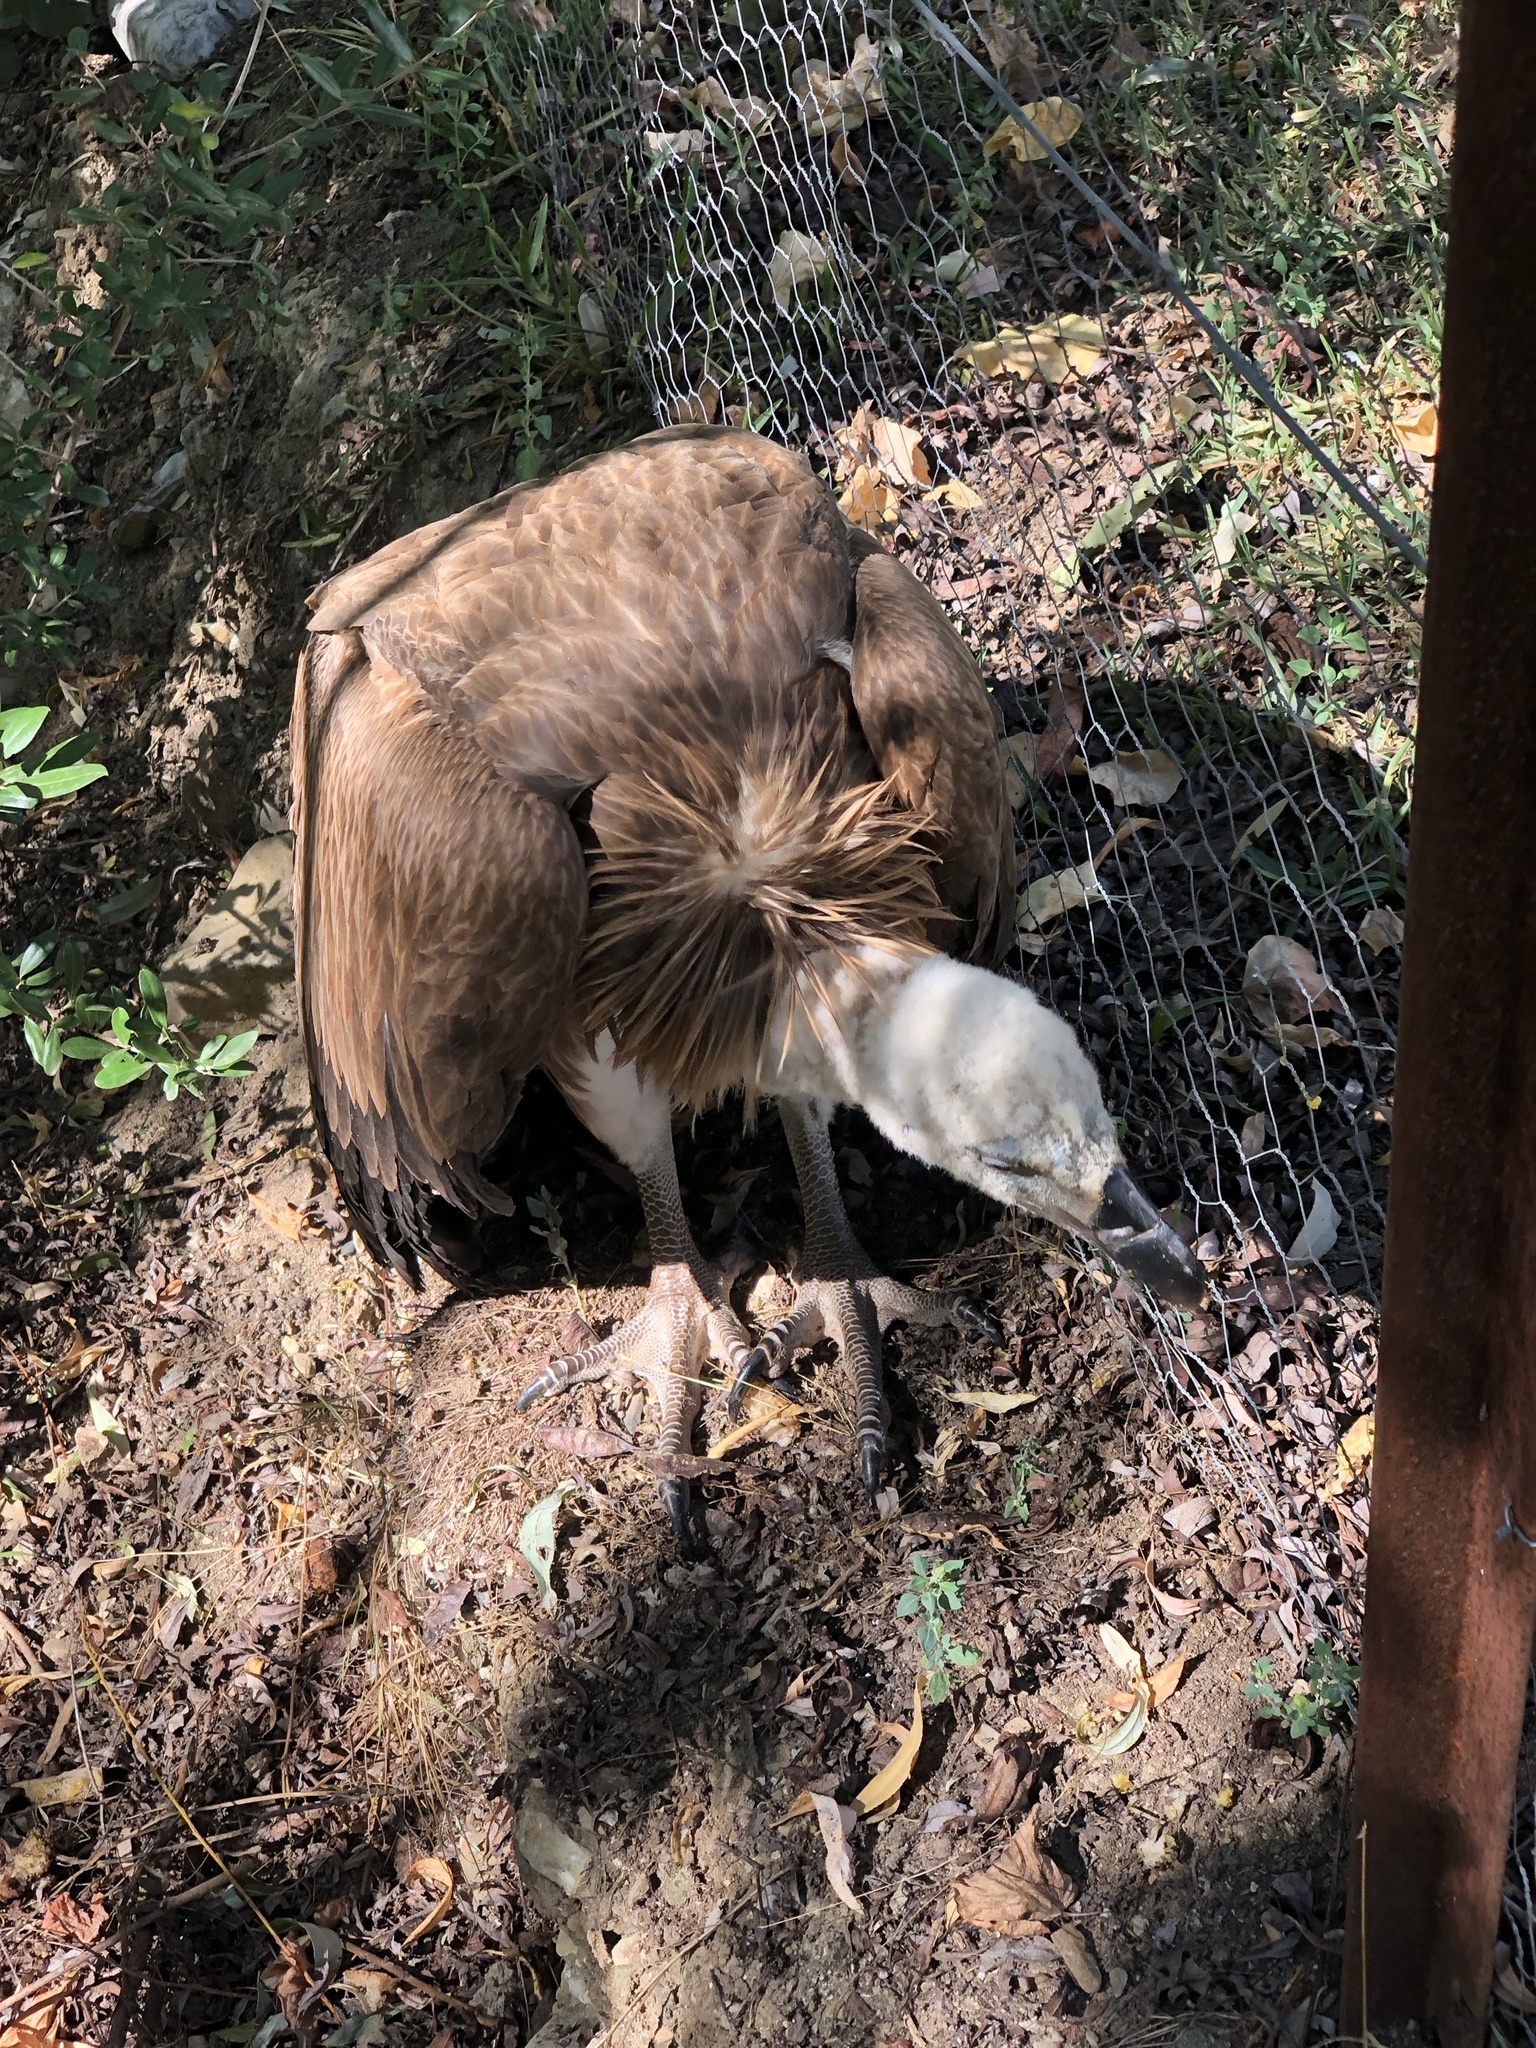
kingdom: Animalia
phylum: Chordata
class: Aves
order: Accipitriformes
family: Accipitridae
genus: Gyps
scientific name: Gyps fulvus
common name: Griffon vulture
